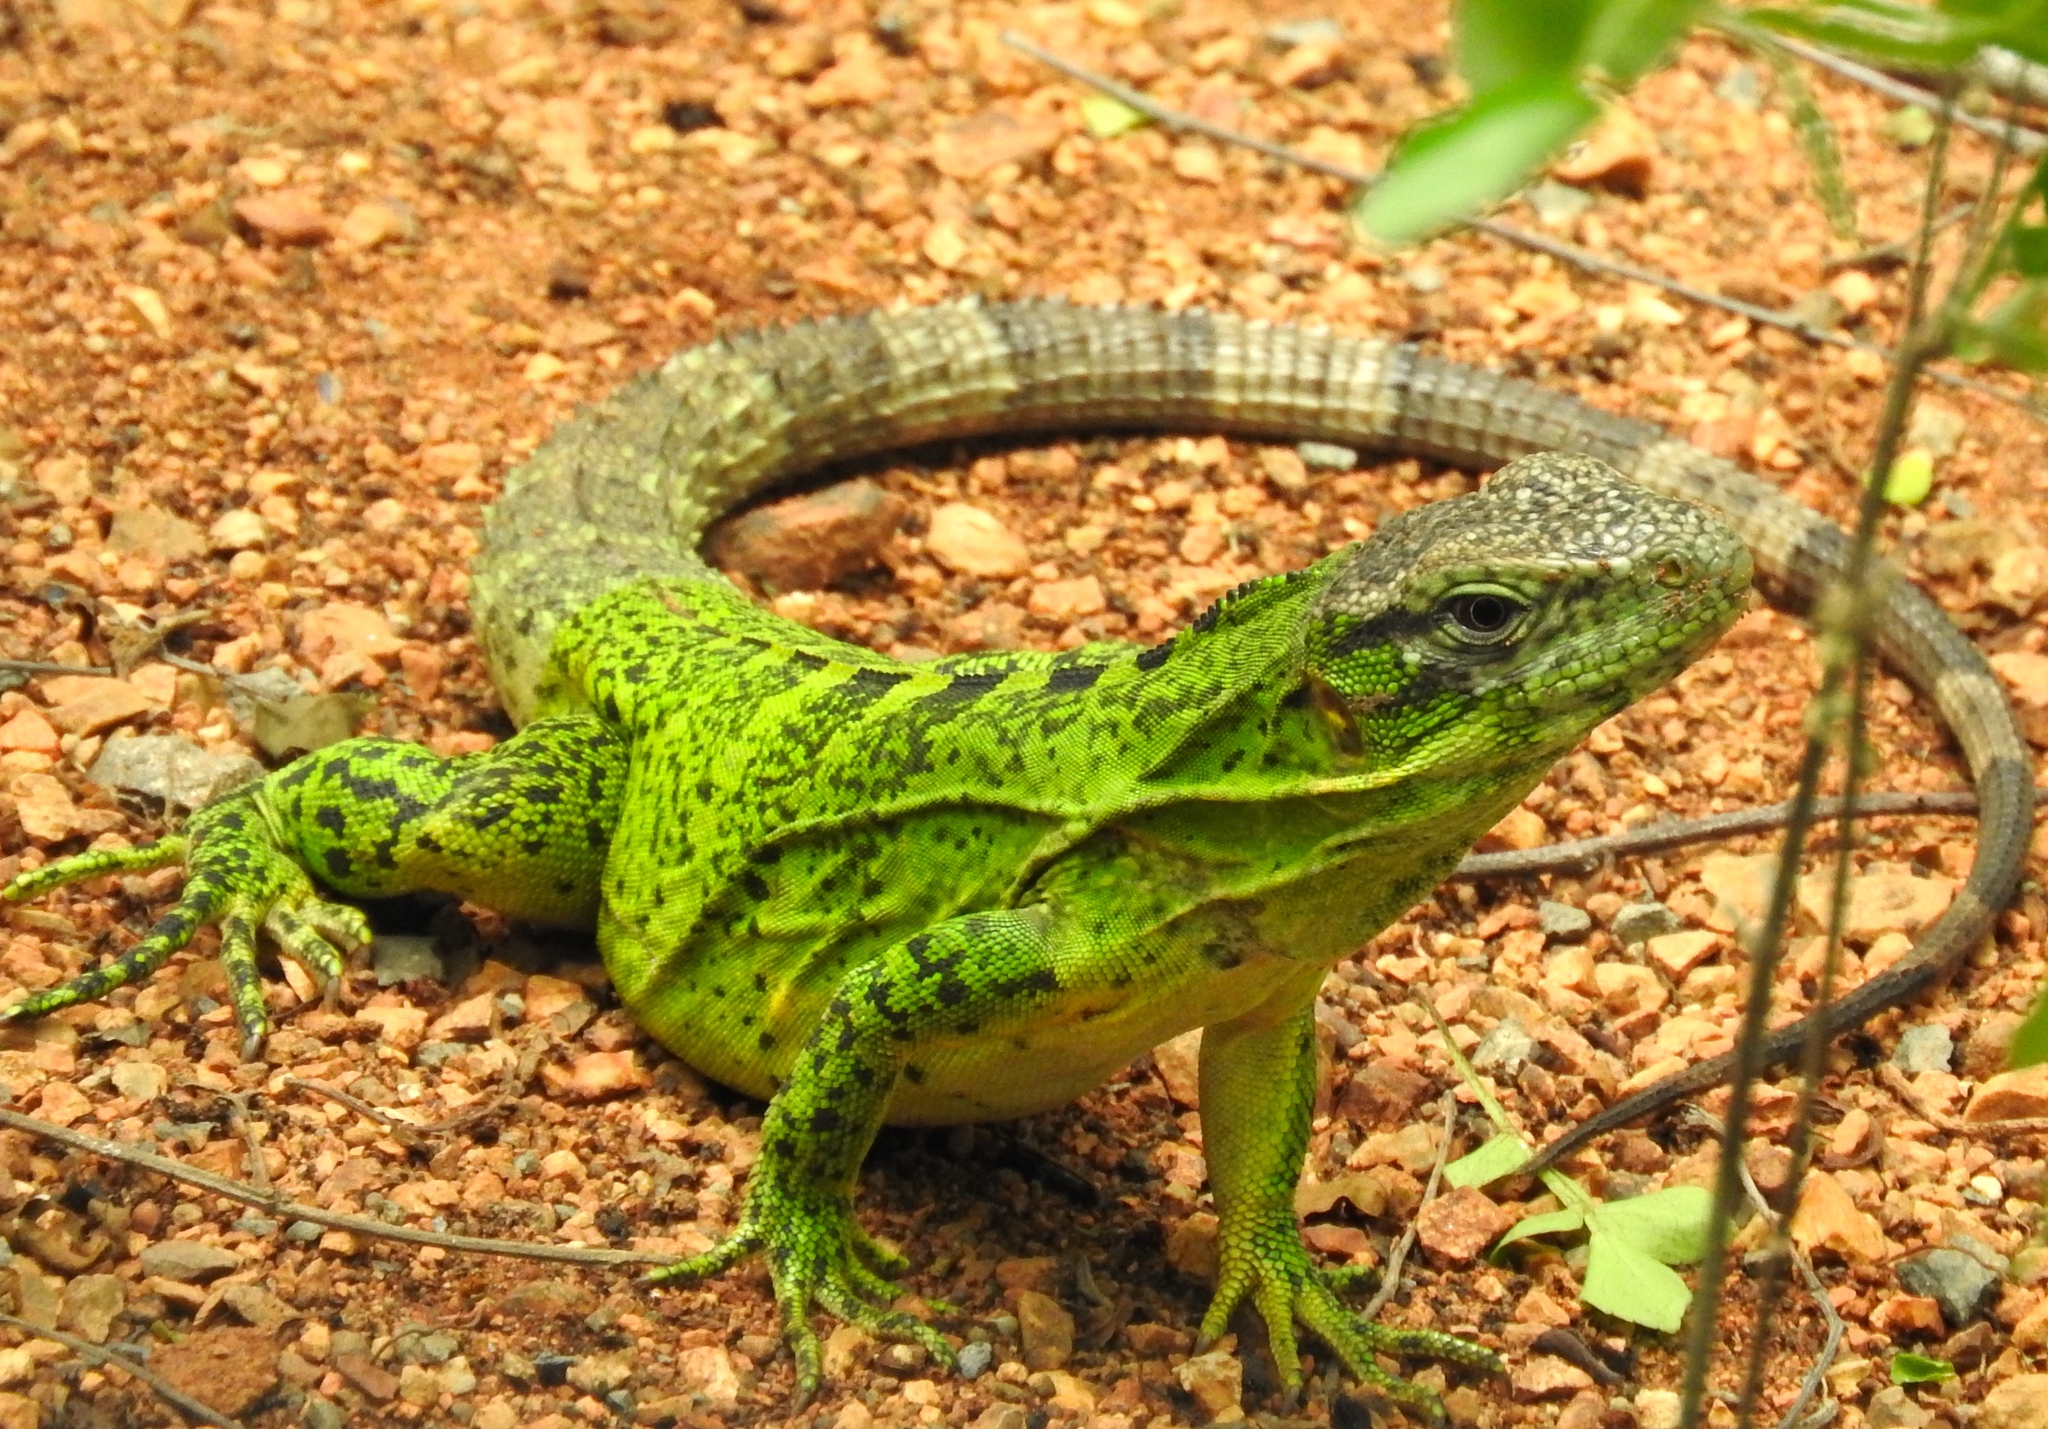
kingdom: Animalia
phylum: Chordata
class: Squamata
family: Iguanidae
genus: Ctenosaura
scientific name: Ctenosaura pectinata
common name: Guerreran spiny-tailed iguana
